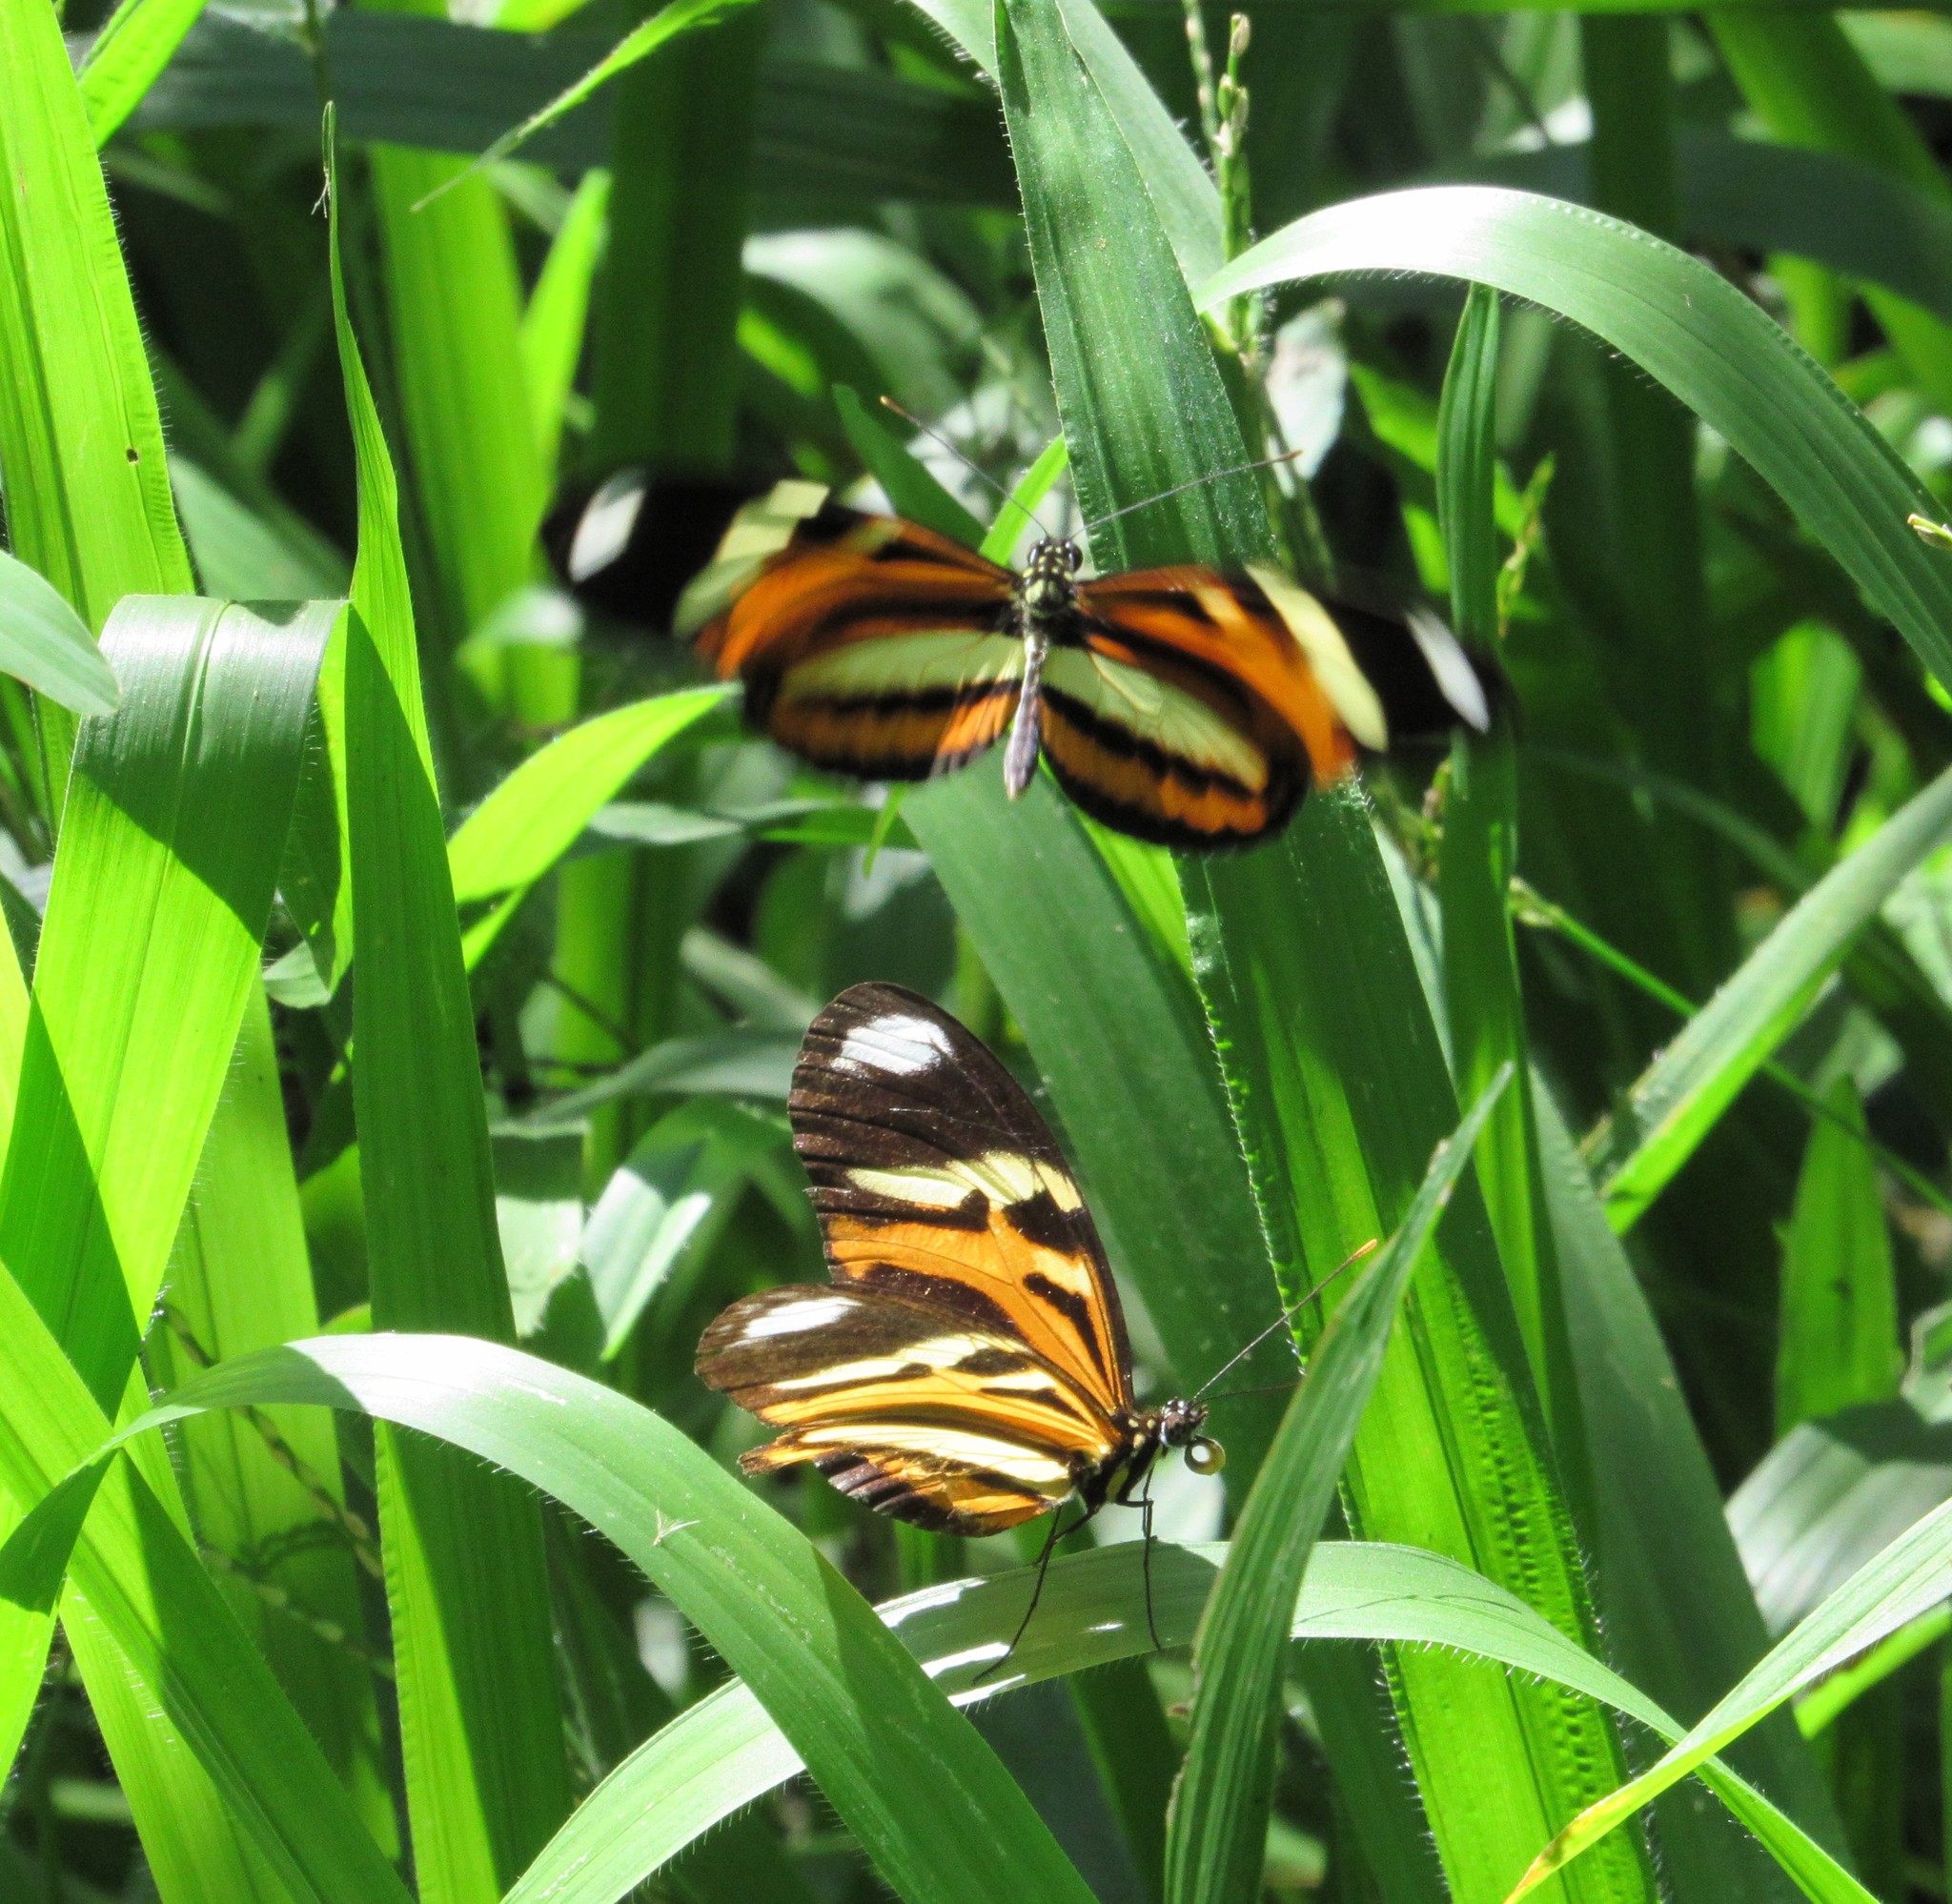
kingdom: Animalia
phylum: Arthropoda
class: Insecta
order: Lepidoptera
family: Nymphalidae
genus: Heliconius
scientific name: Heliconius ethilla
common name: Ethilia longwing
